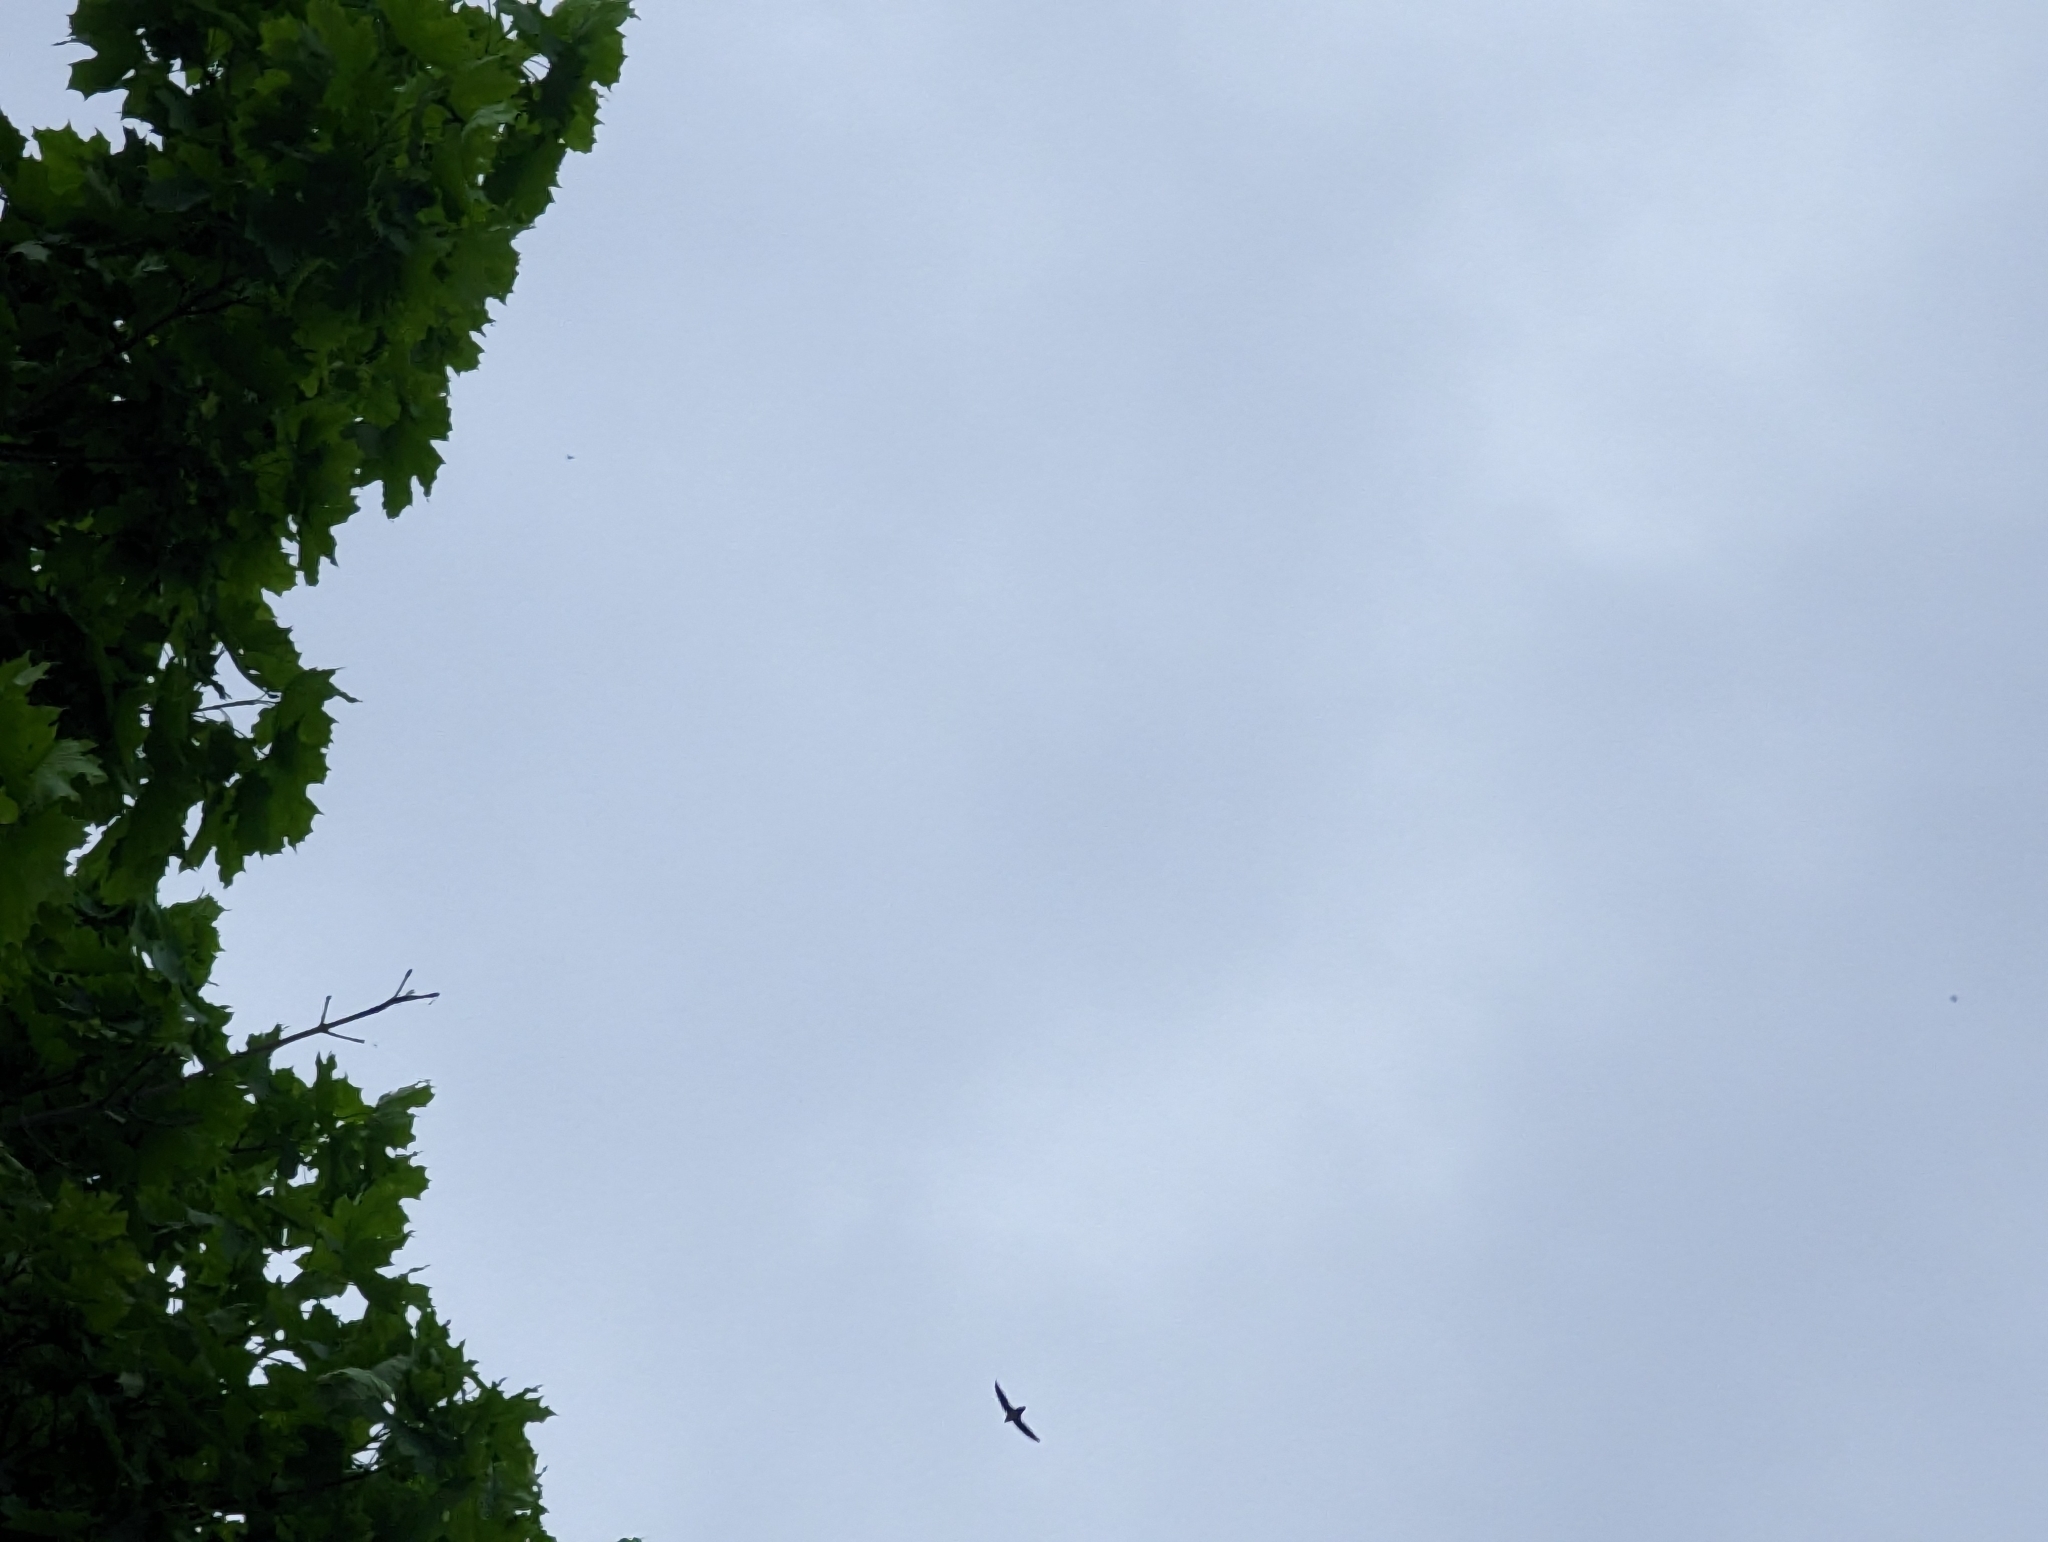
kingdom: Animalia
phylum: Chordata
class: Aves
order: Apodiformes
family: Apodidae
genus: Chaetura
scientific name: Chaetura pelagica
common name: Chimney swift
